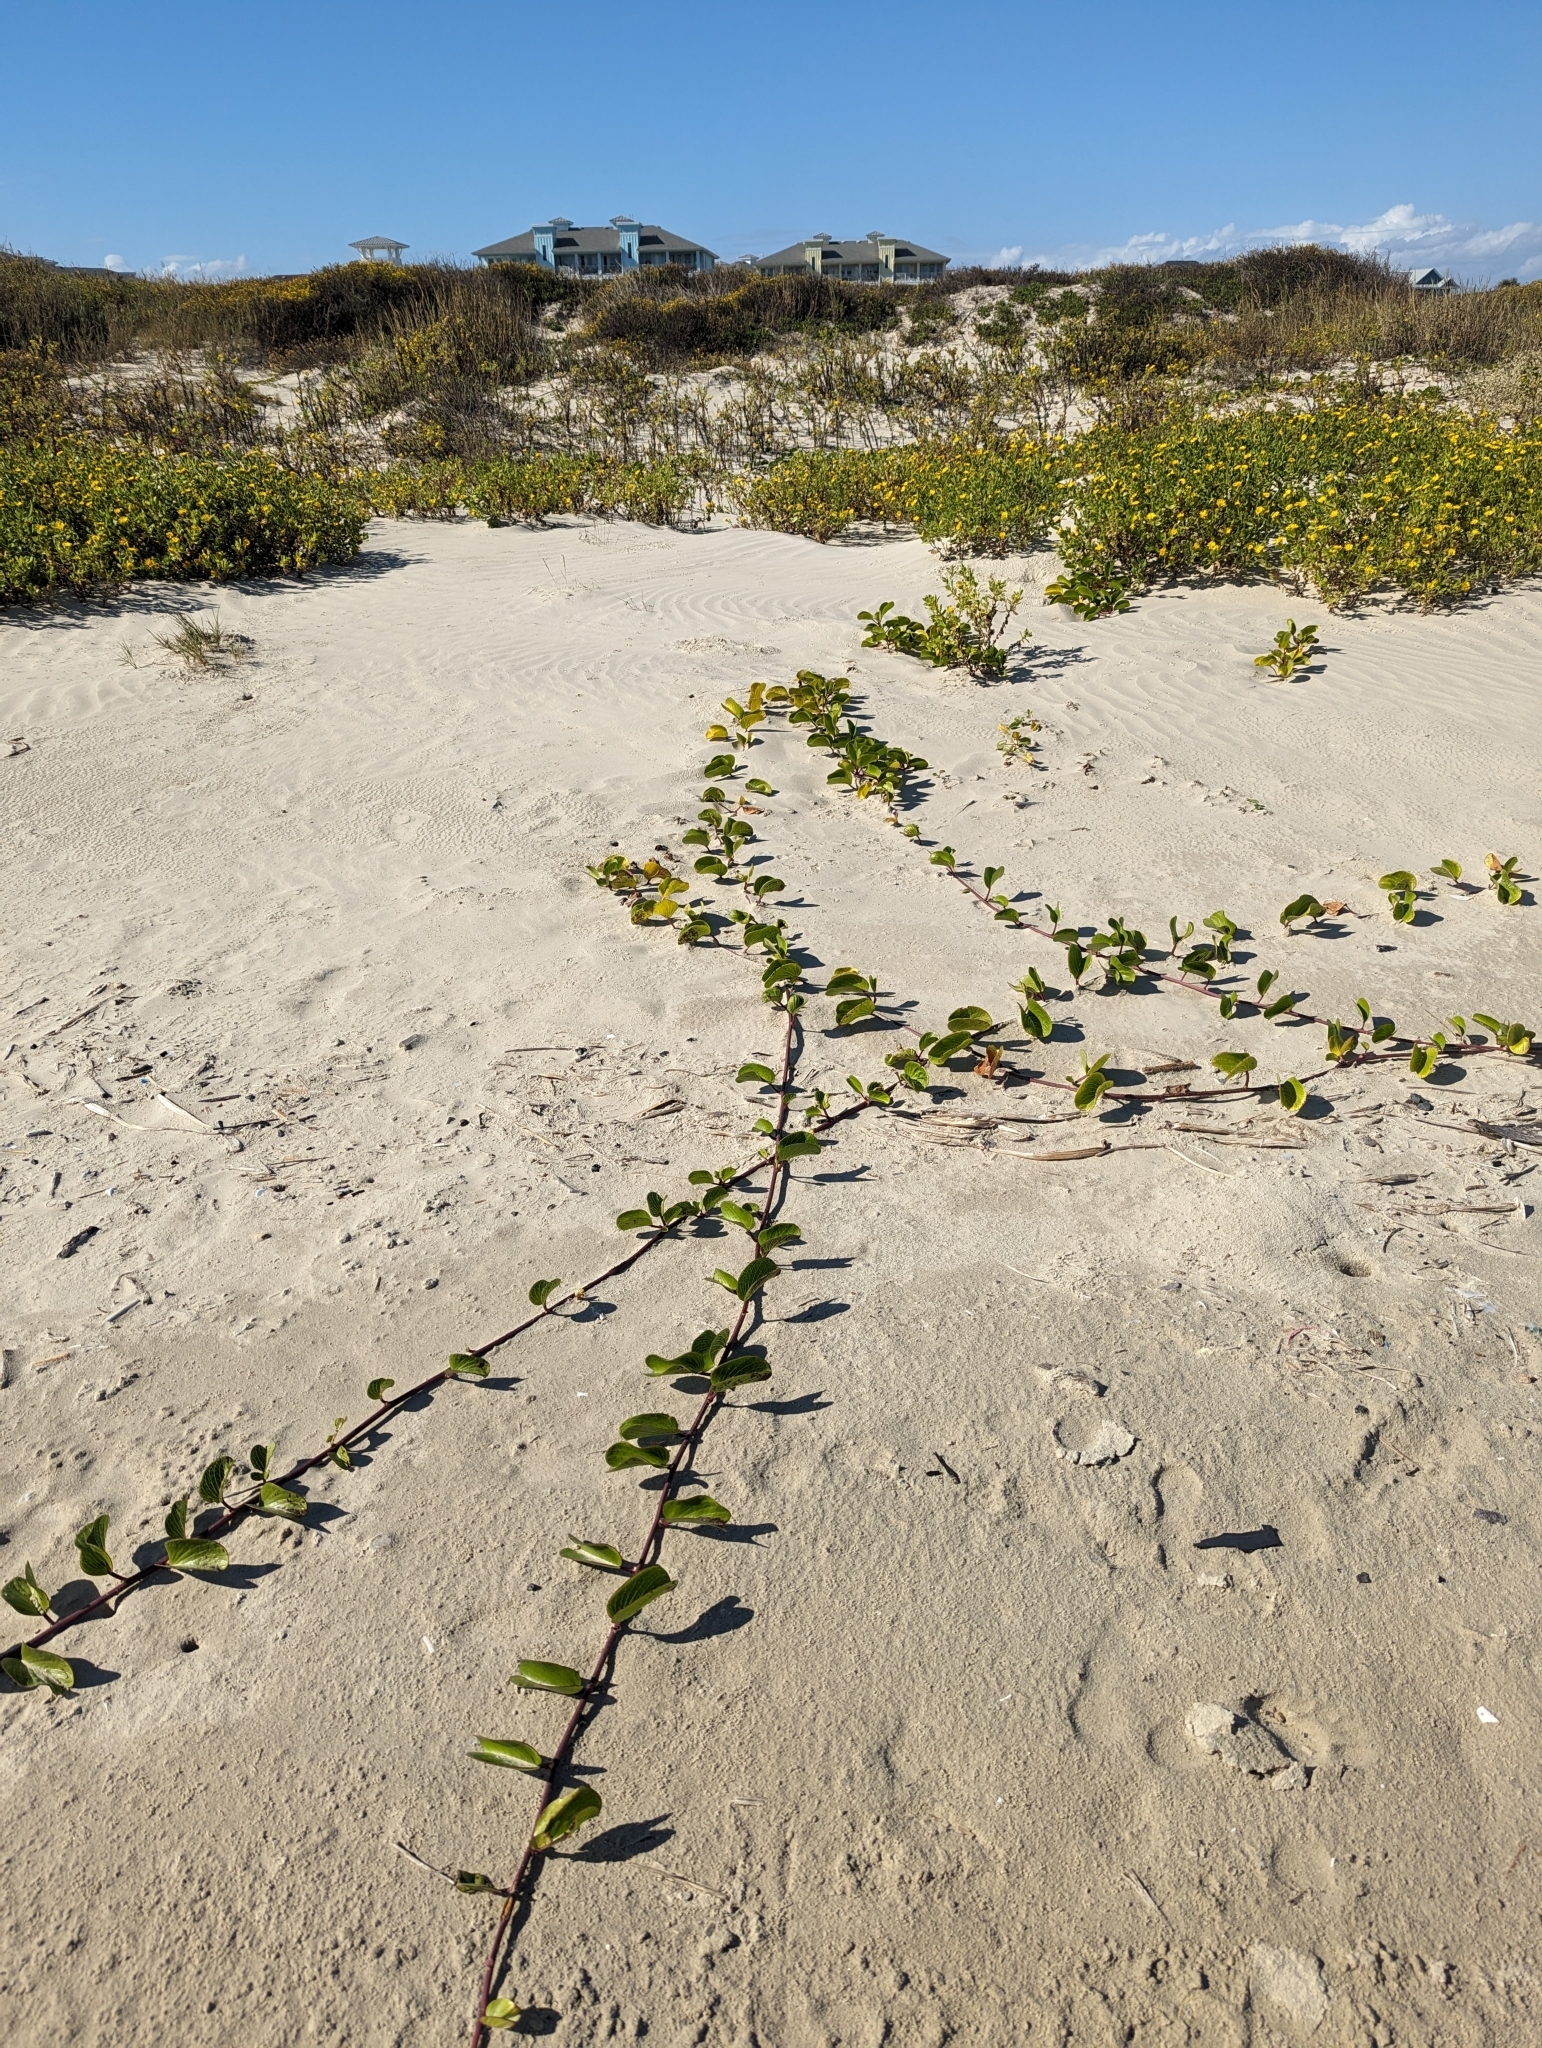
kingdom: Plantae
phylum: Tracheophyta
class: Magnoliopsida
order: Solanales
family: Convolvulaceae
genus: Ipomoea
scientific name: Ipomoea pes-caprae
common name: Beach morning glory
